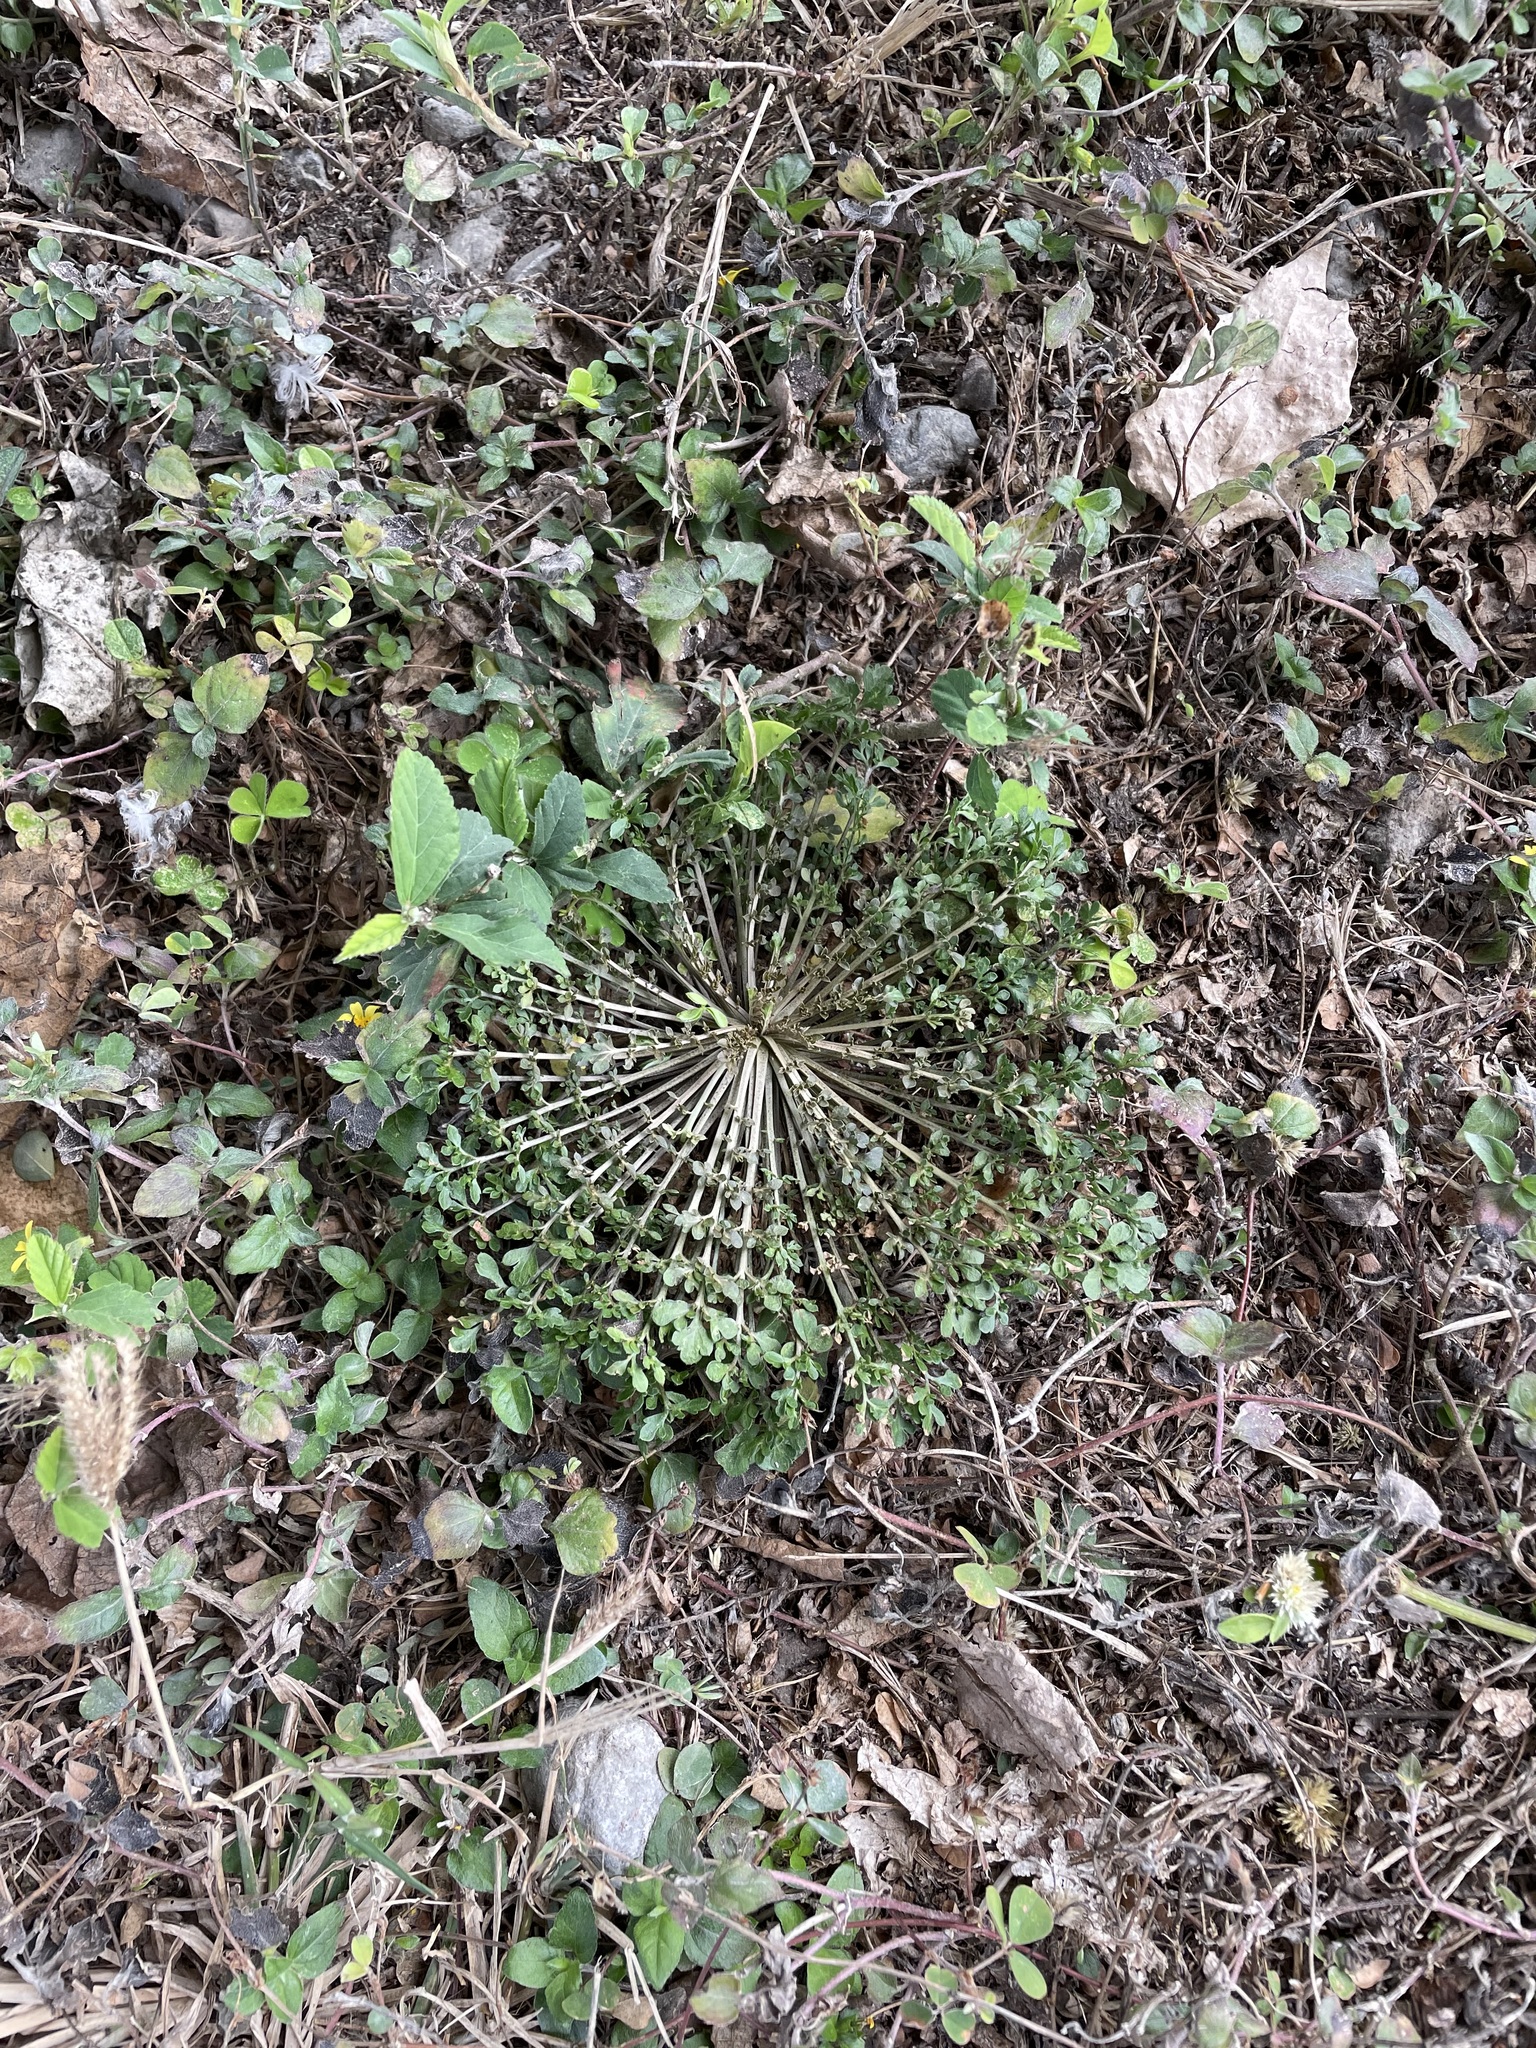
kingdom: Plantae
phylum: Tracheophyta
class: Magnoliopsida
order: Brassicales
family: Brassicaceae
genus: Capsella
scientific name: Capsella bursa-pastoris
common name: Shepherd's purse
